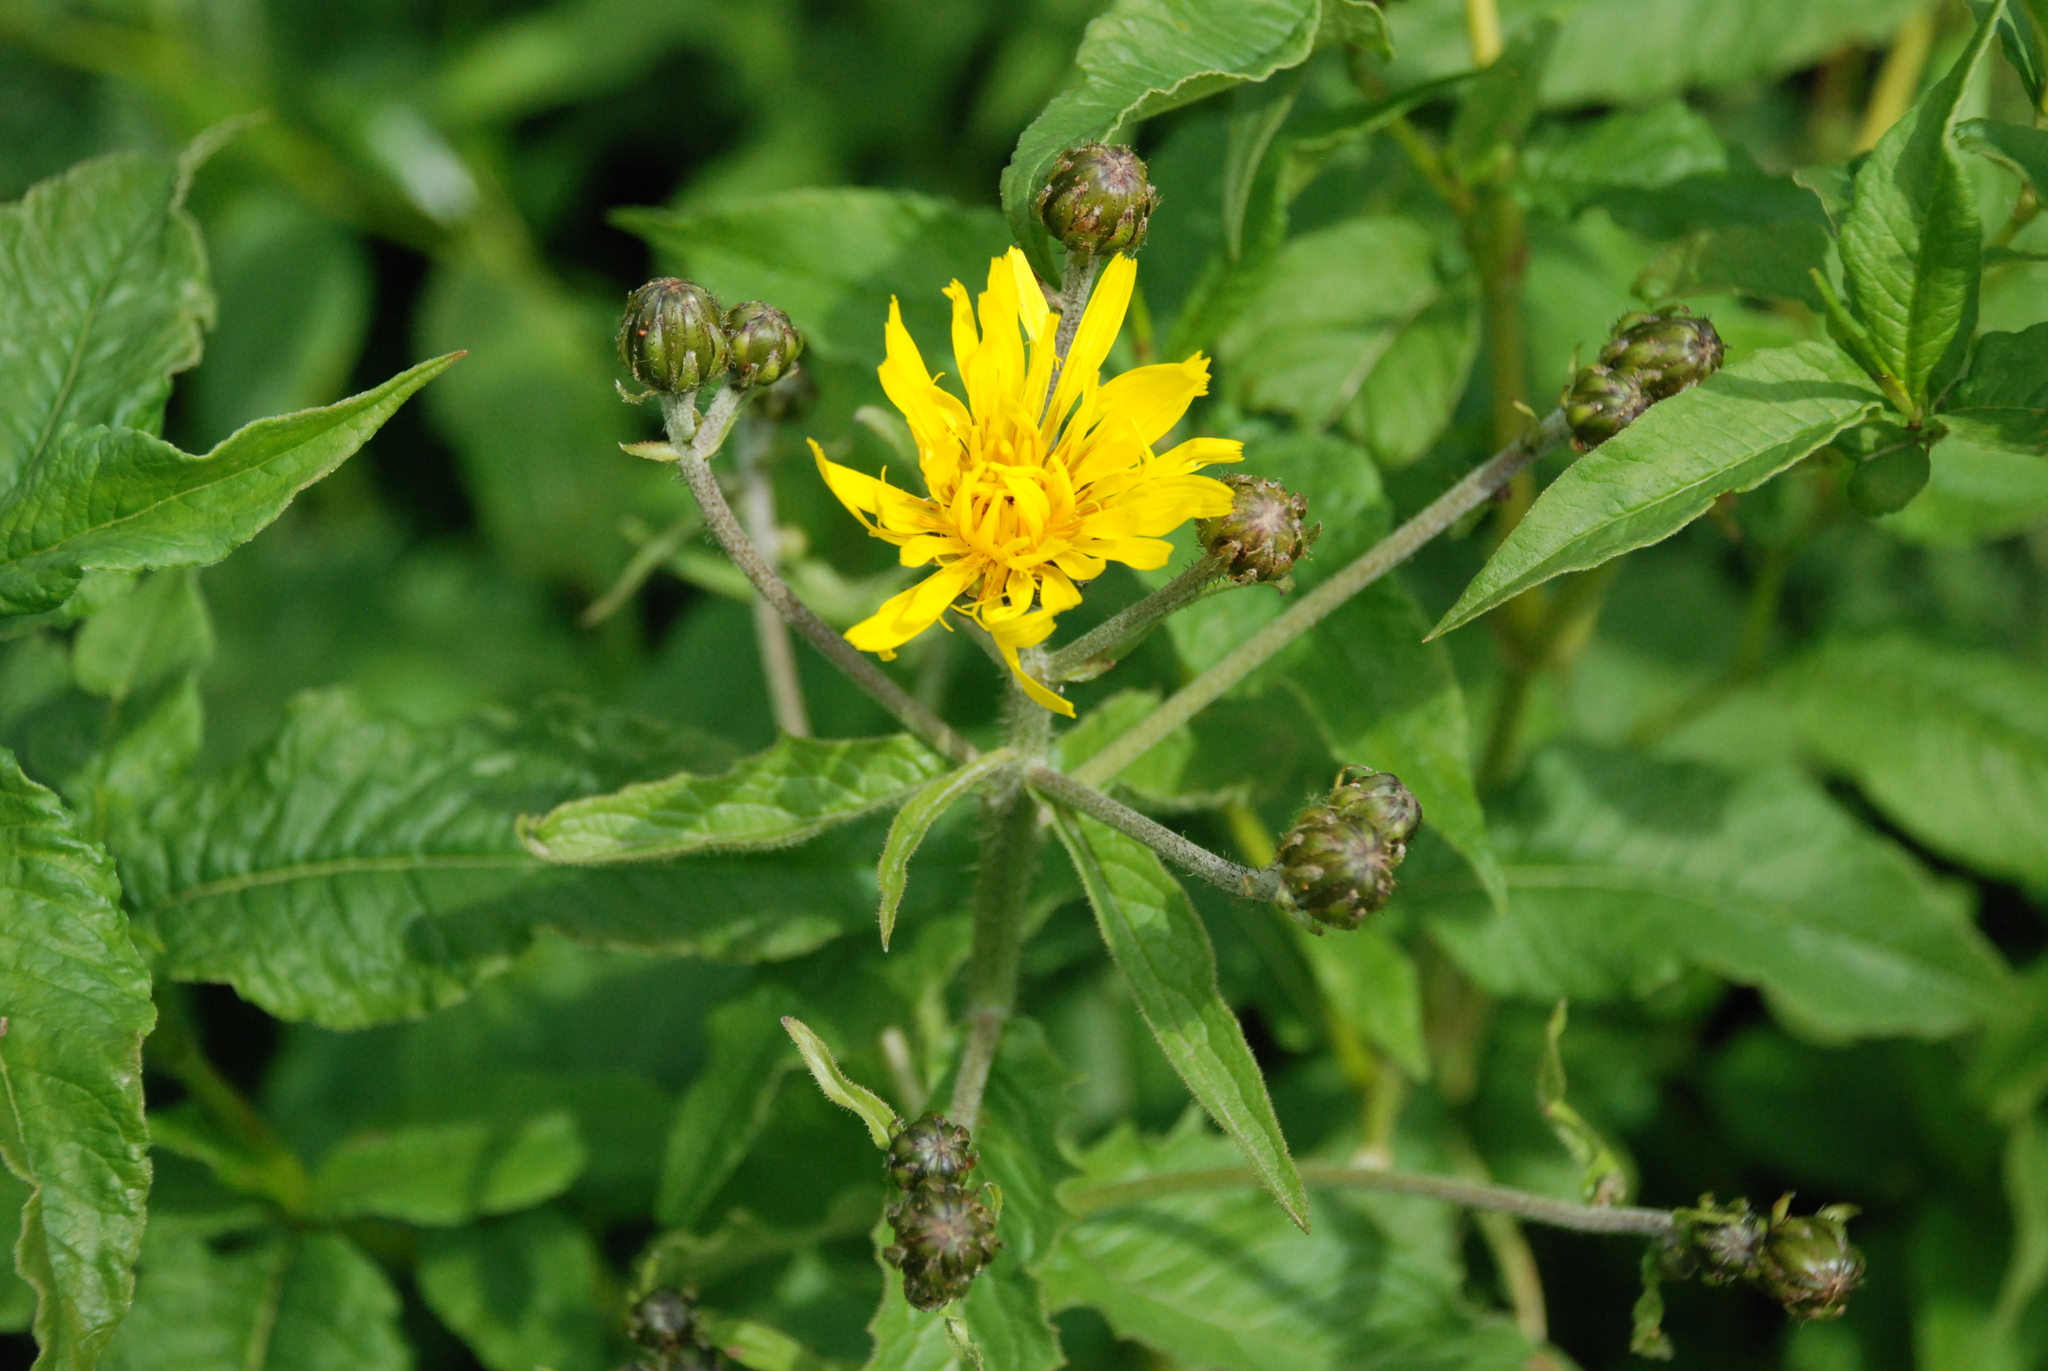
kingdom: Plantae
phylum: Tracheophyta
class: Magnoliopsida
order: Asterales
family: Asteraceae
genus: Crepis
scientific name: Crepis sibirica
